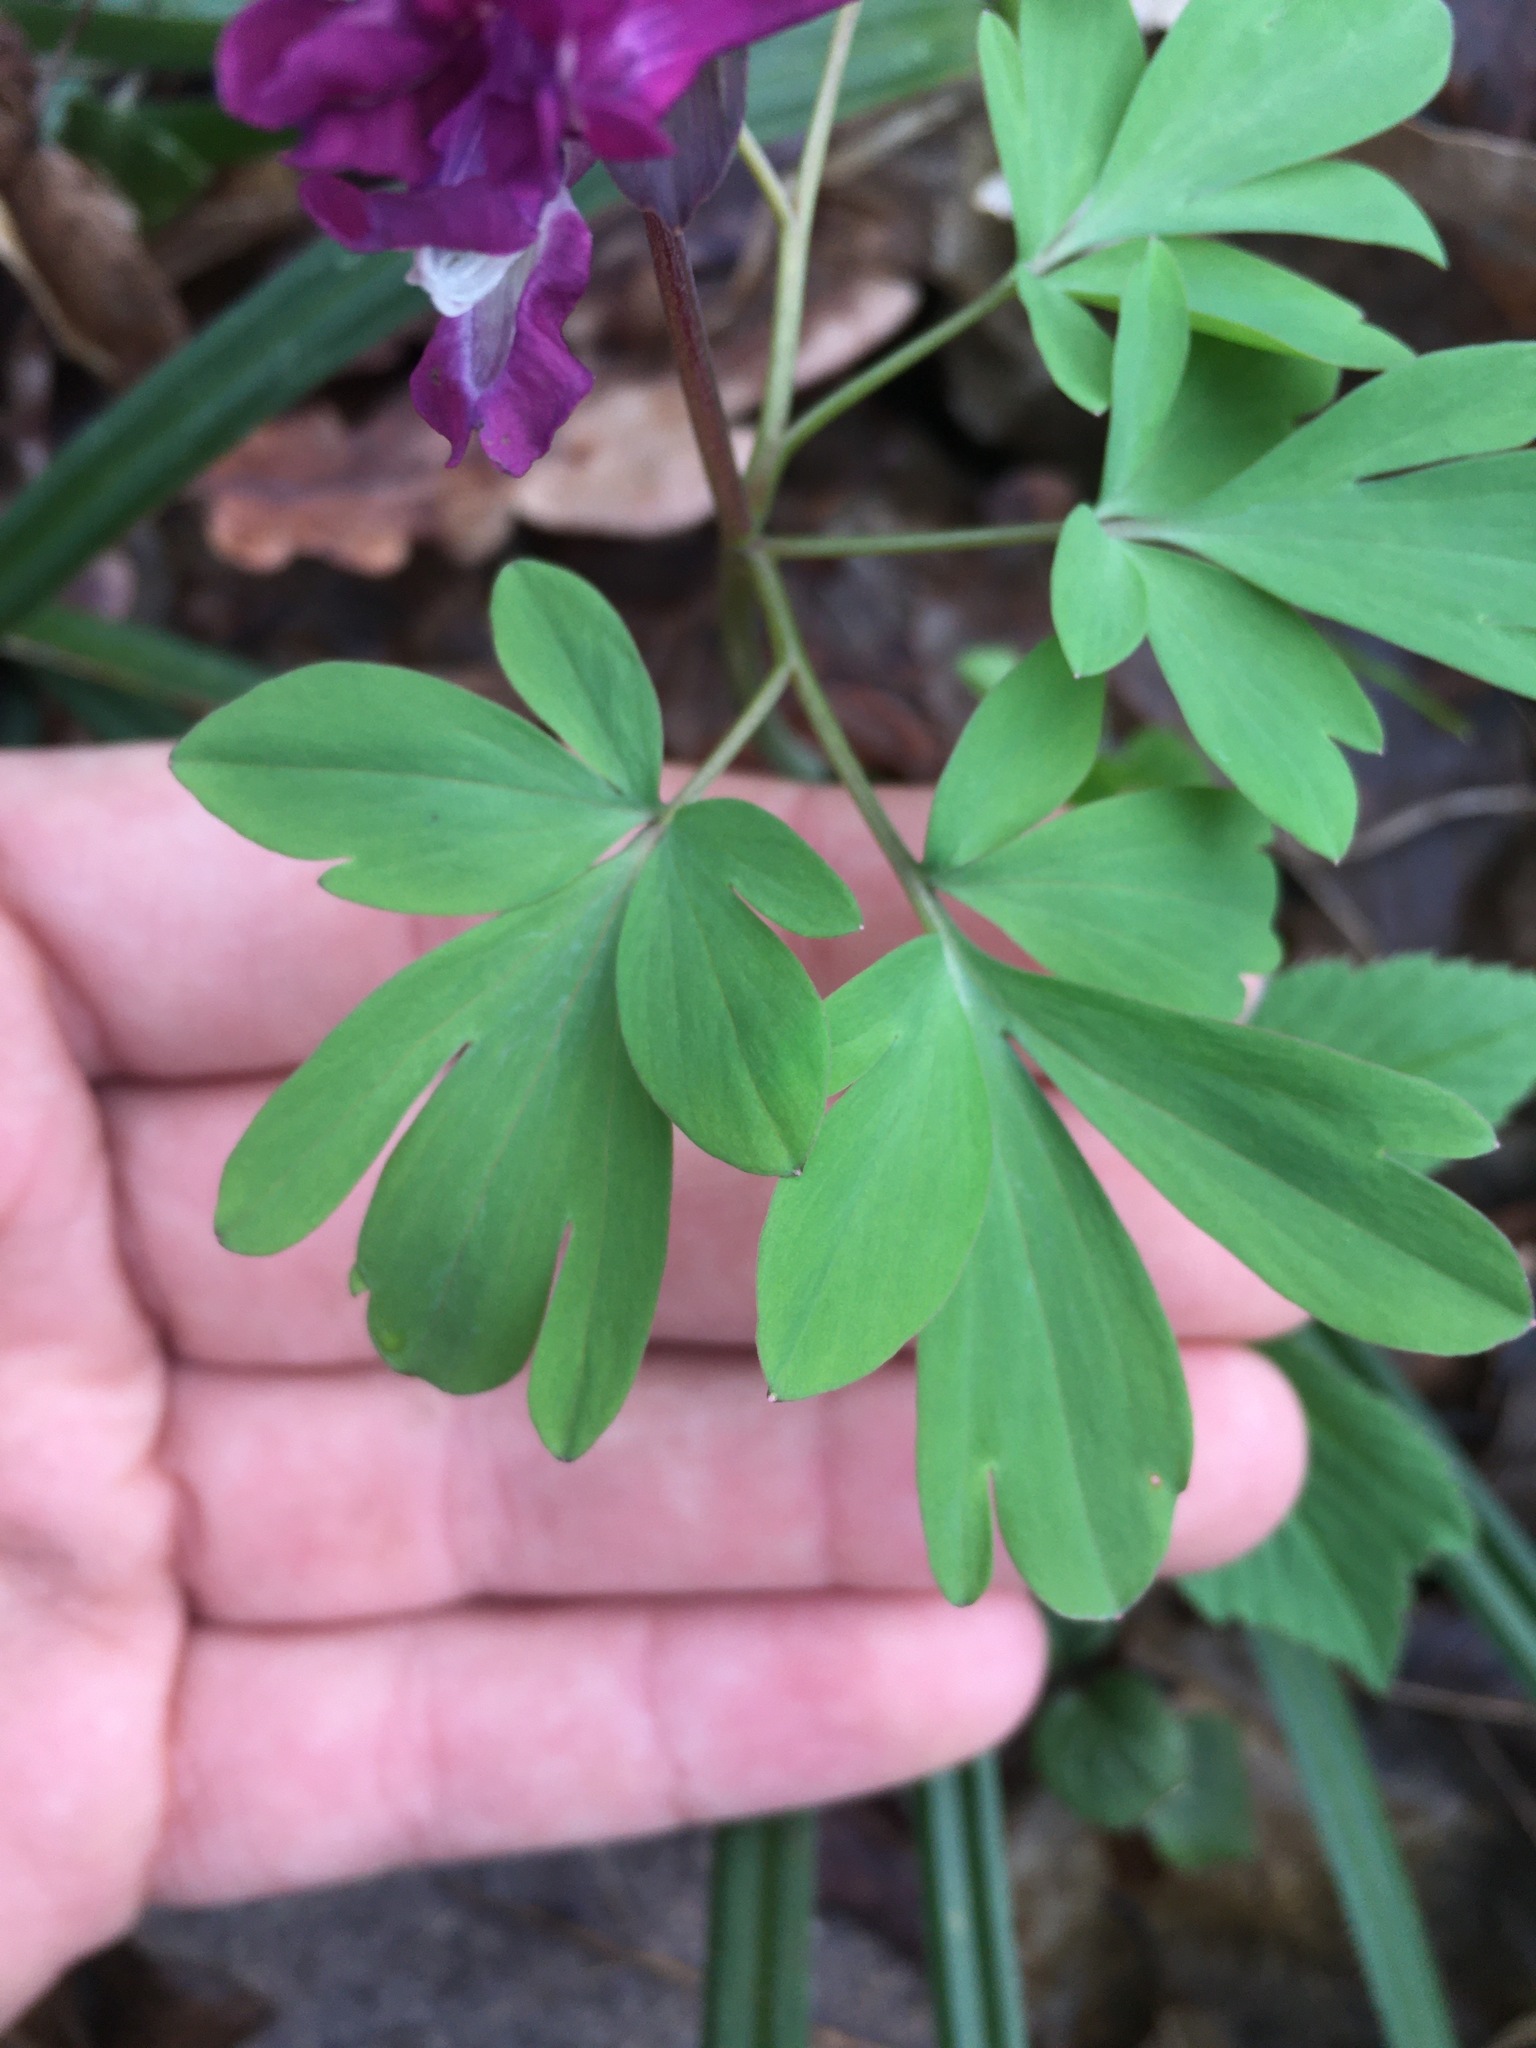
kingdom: Plantae
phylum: Tracheophyta
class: Magnoliopsida
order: Ranunculales
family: Papaveraceae
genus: Corydalis
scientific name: Corydalis cava
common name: Hollowroot
